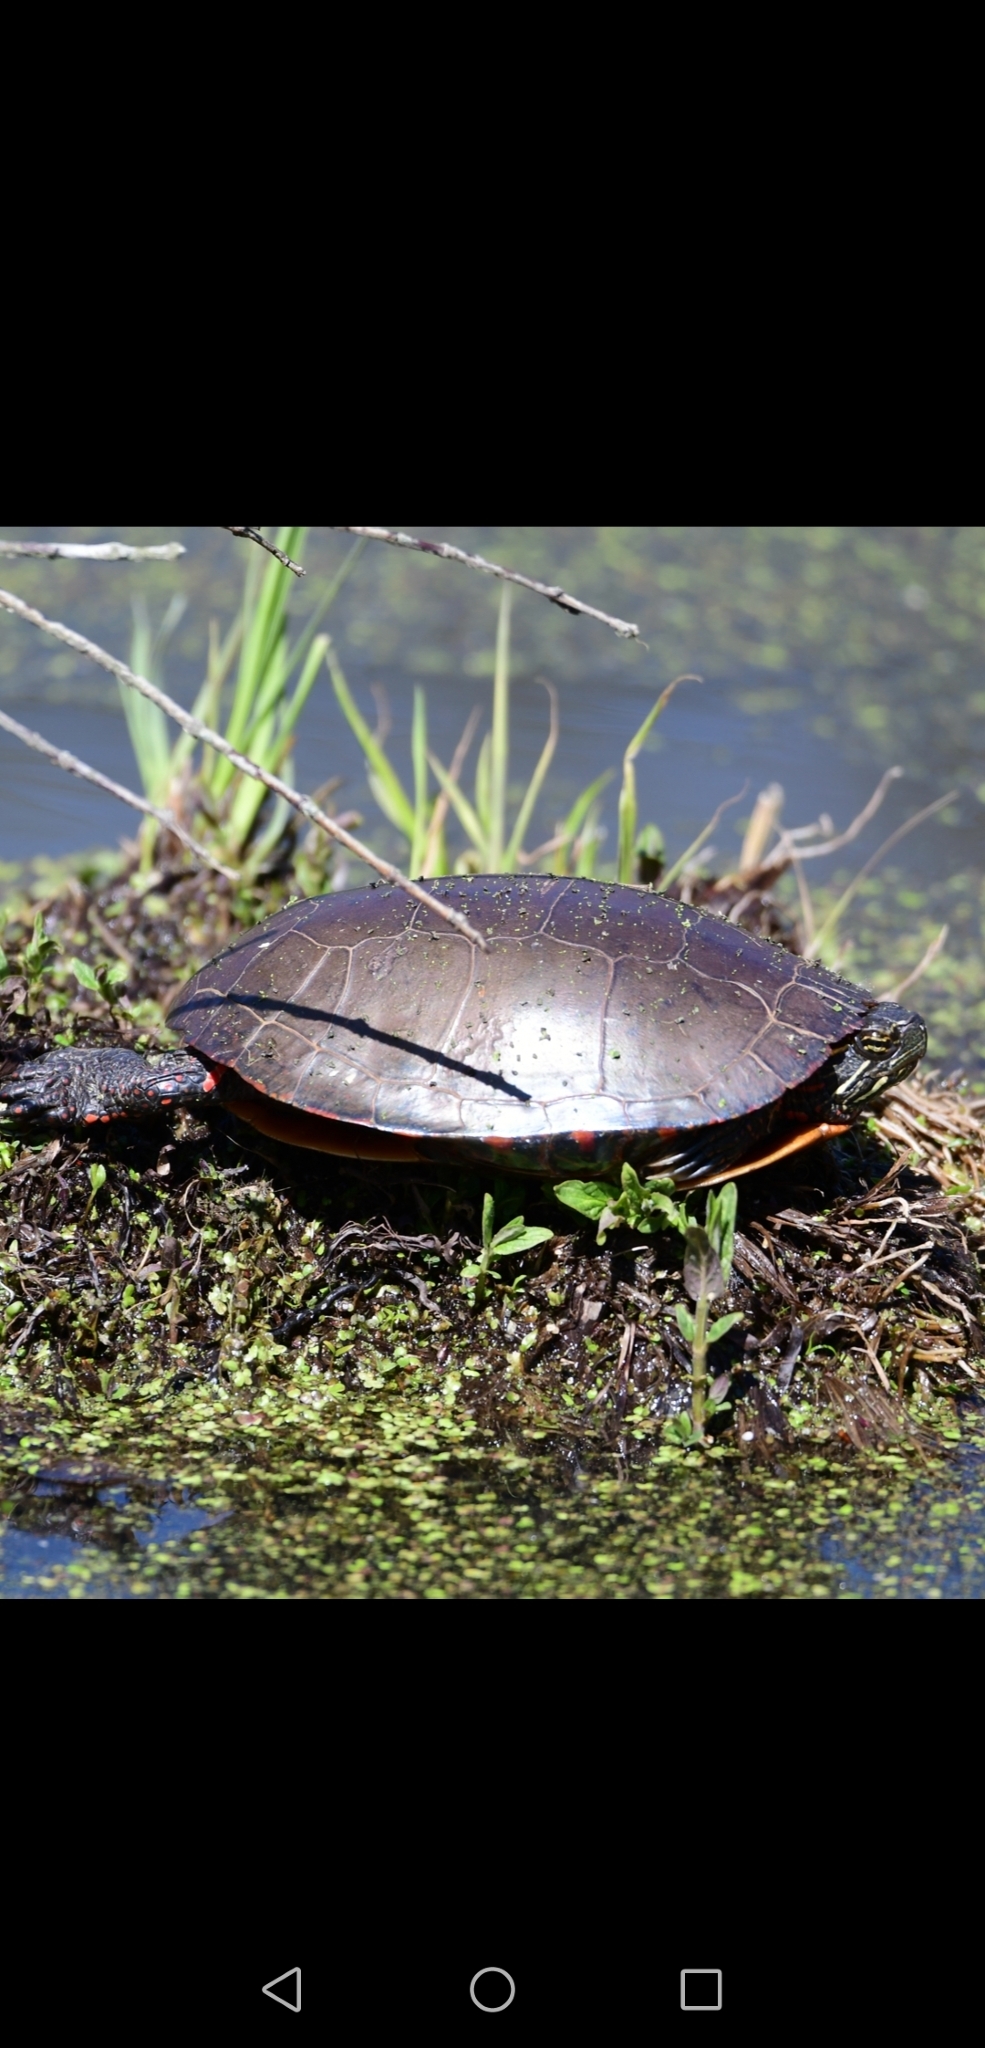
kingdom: Animalia
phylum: Chordata
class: Testudines
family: Emydidae
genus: Chrysemys
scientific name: Chrysemys picta
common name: Painted turtle
